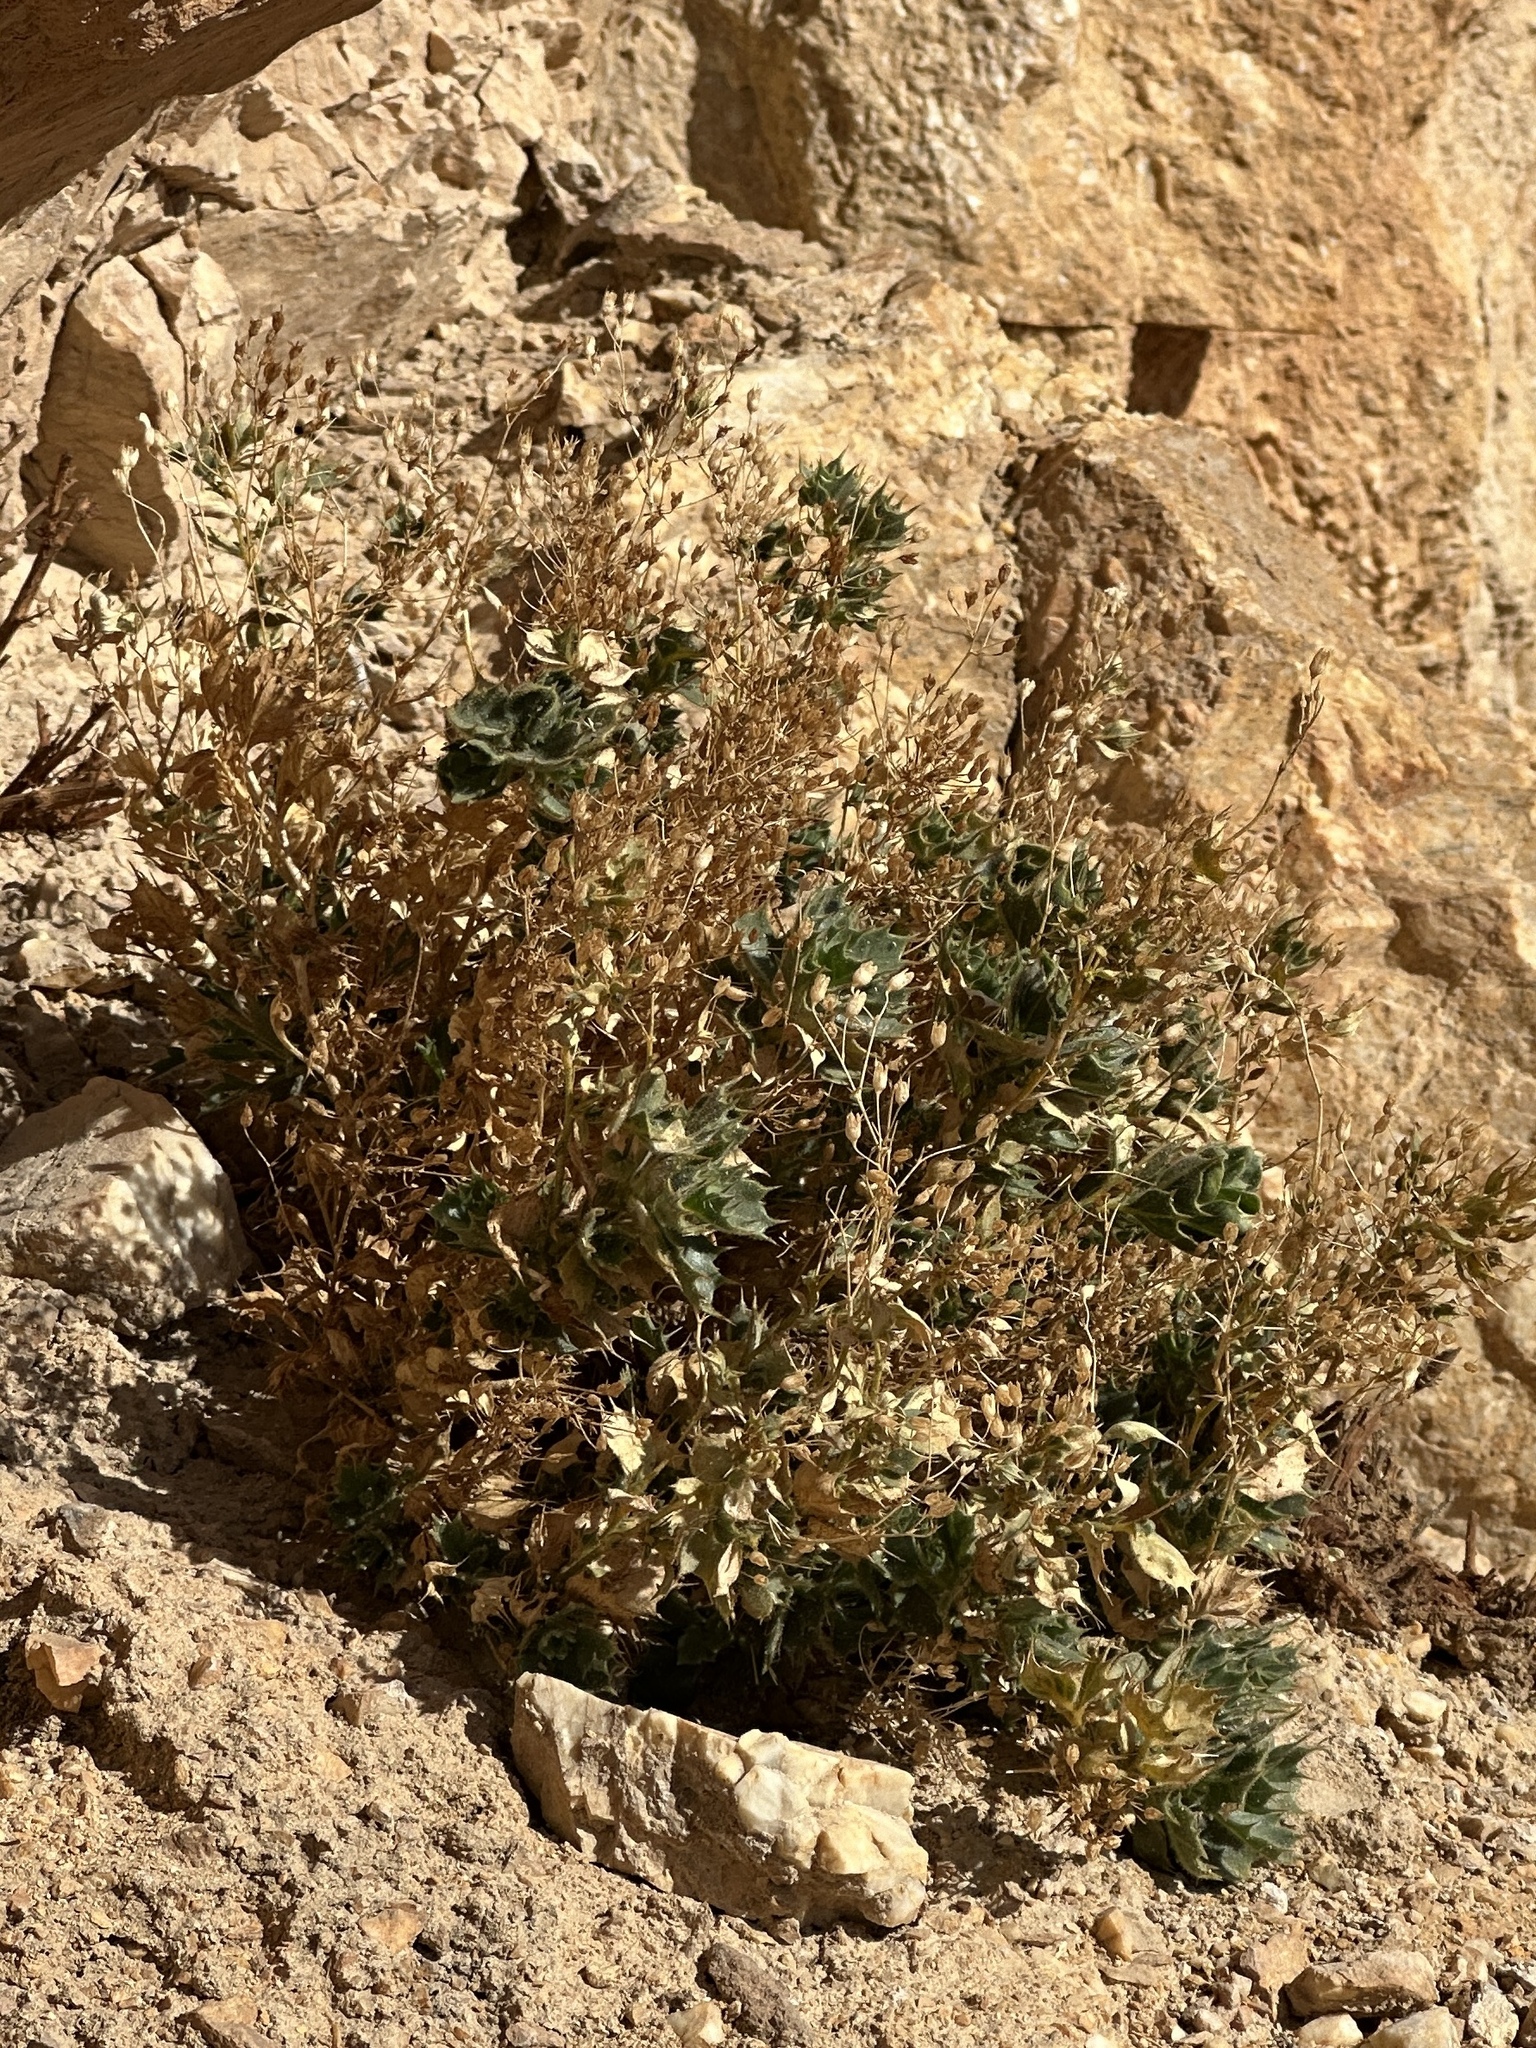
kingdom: Plantae
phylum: Tracheophyta
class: Magnoliopsida
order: Ericales
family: Polemoniaceae
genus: Aliciella
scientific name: Aliciella ripleyi
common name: Ripley's gilia
